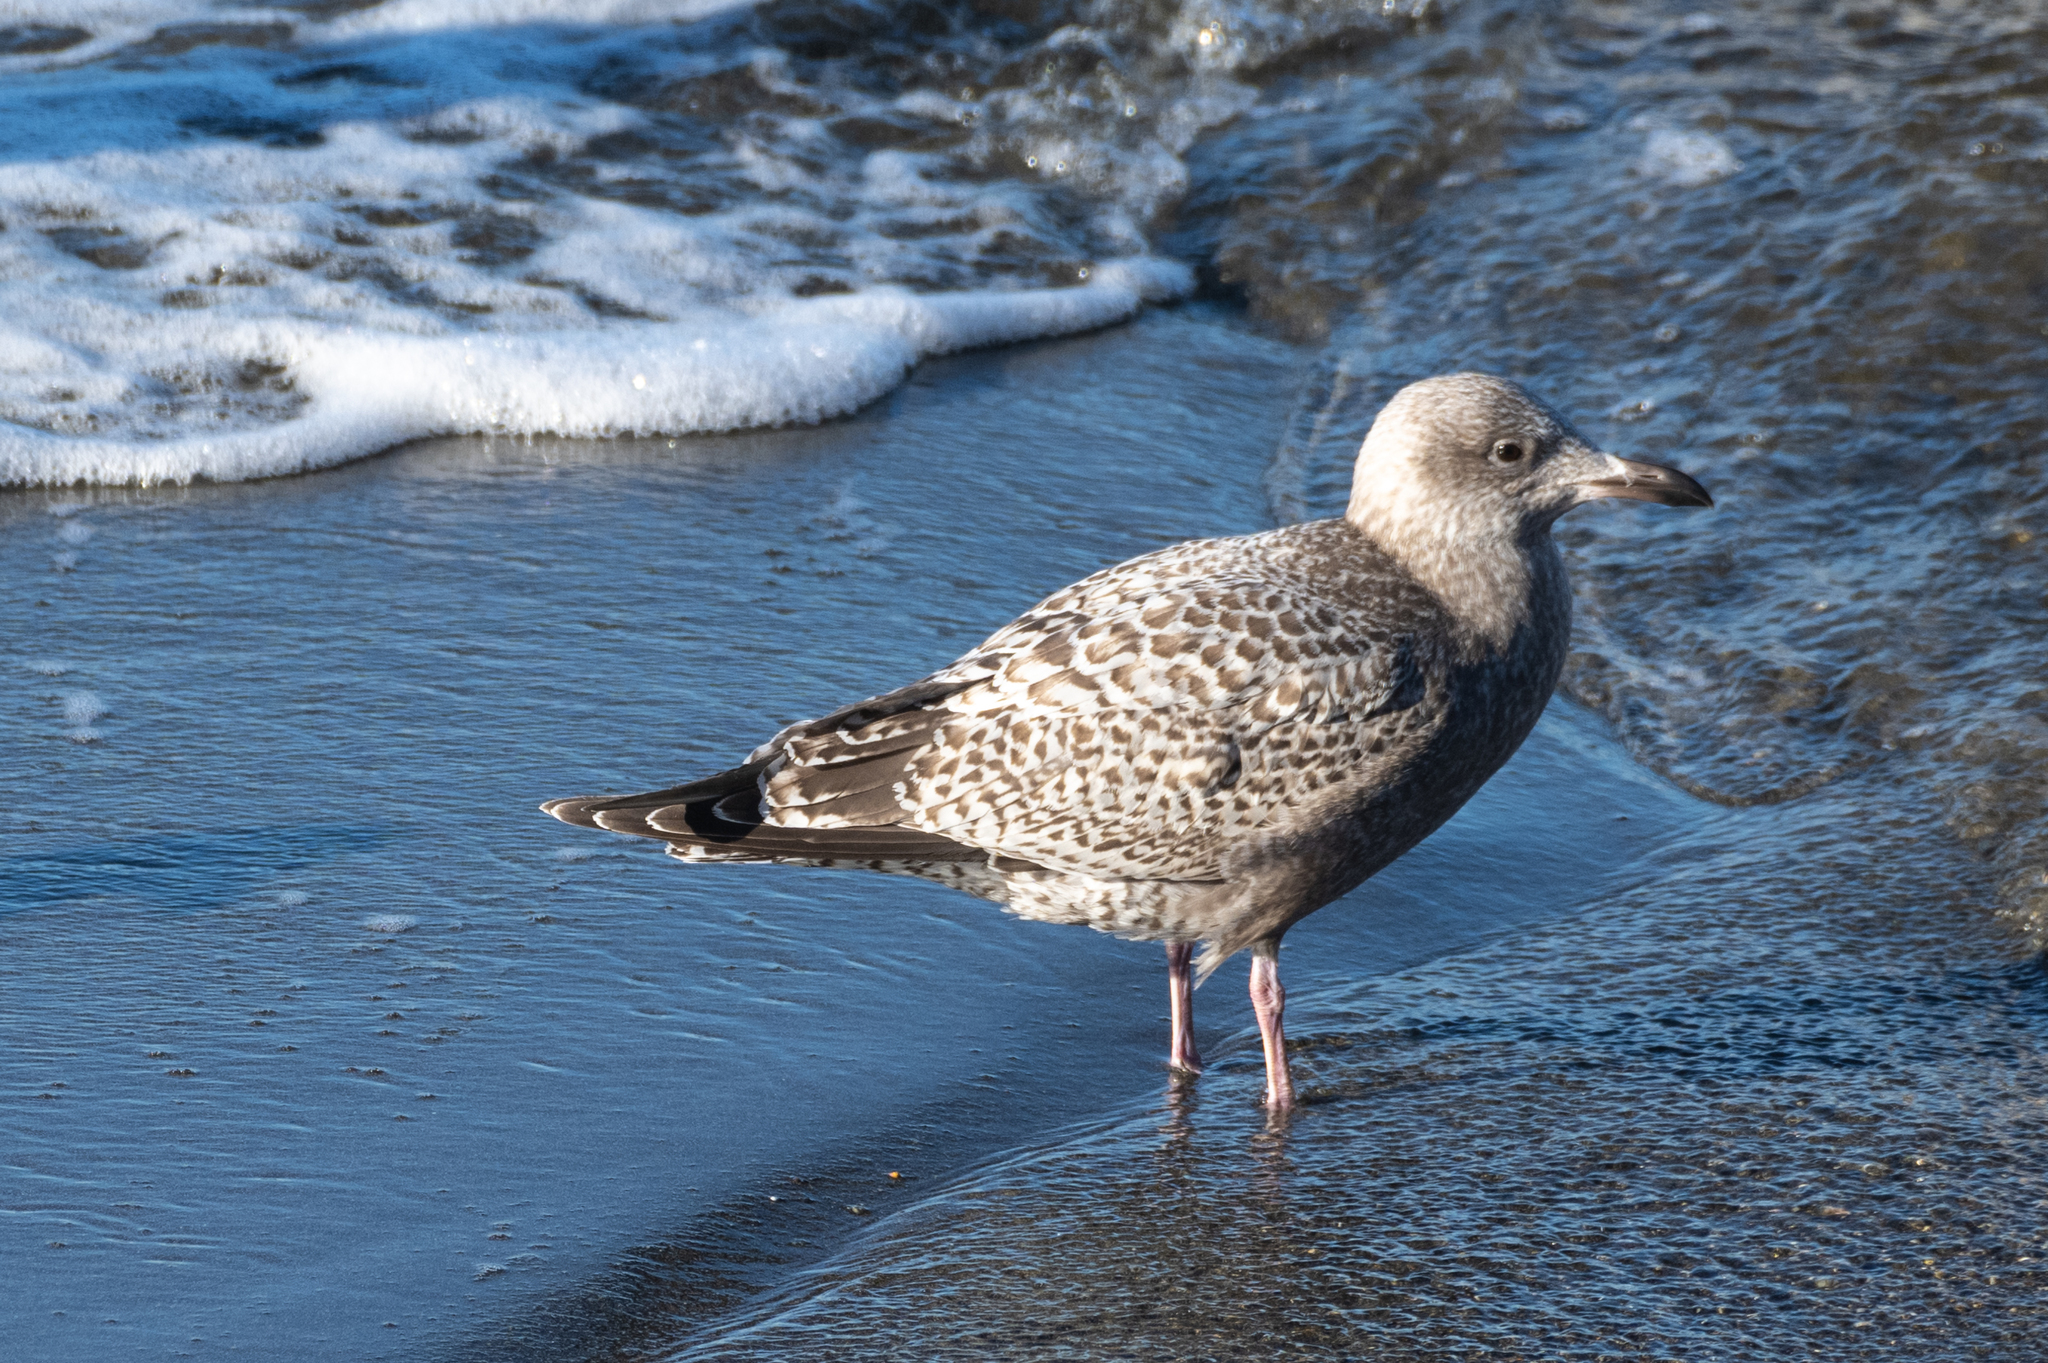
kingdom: Animalia
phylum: Chordata
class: Aves
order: Charadriiformes
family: Laridae
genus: Larus
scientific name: Larus glaucoides
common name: Iceland gull
